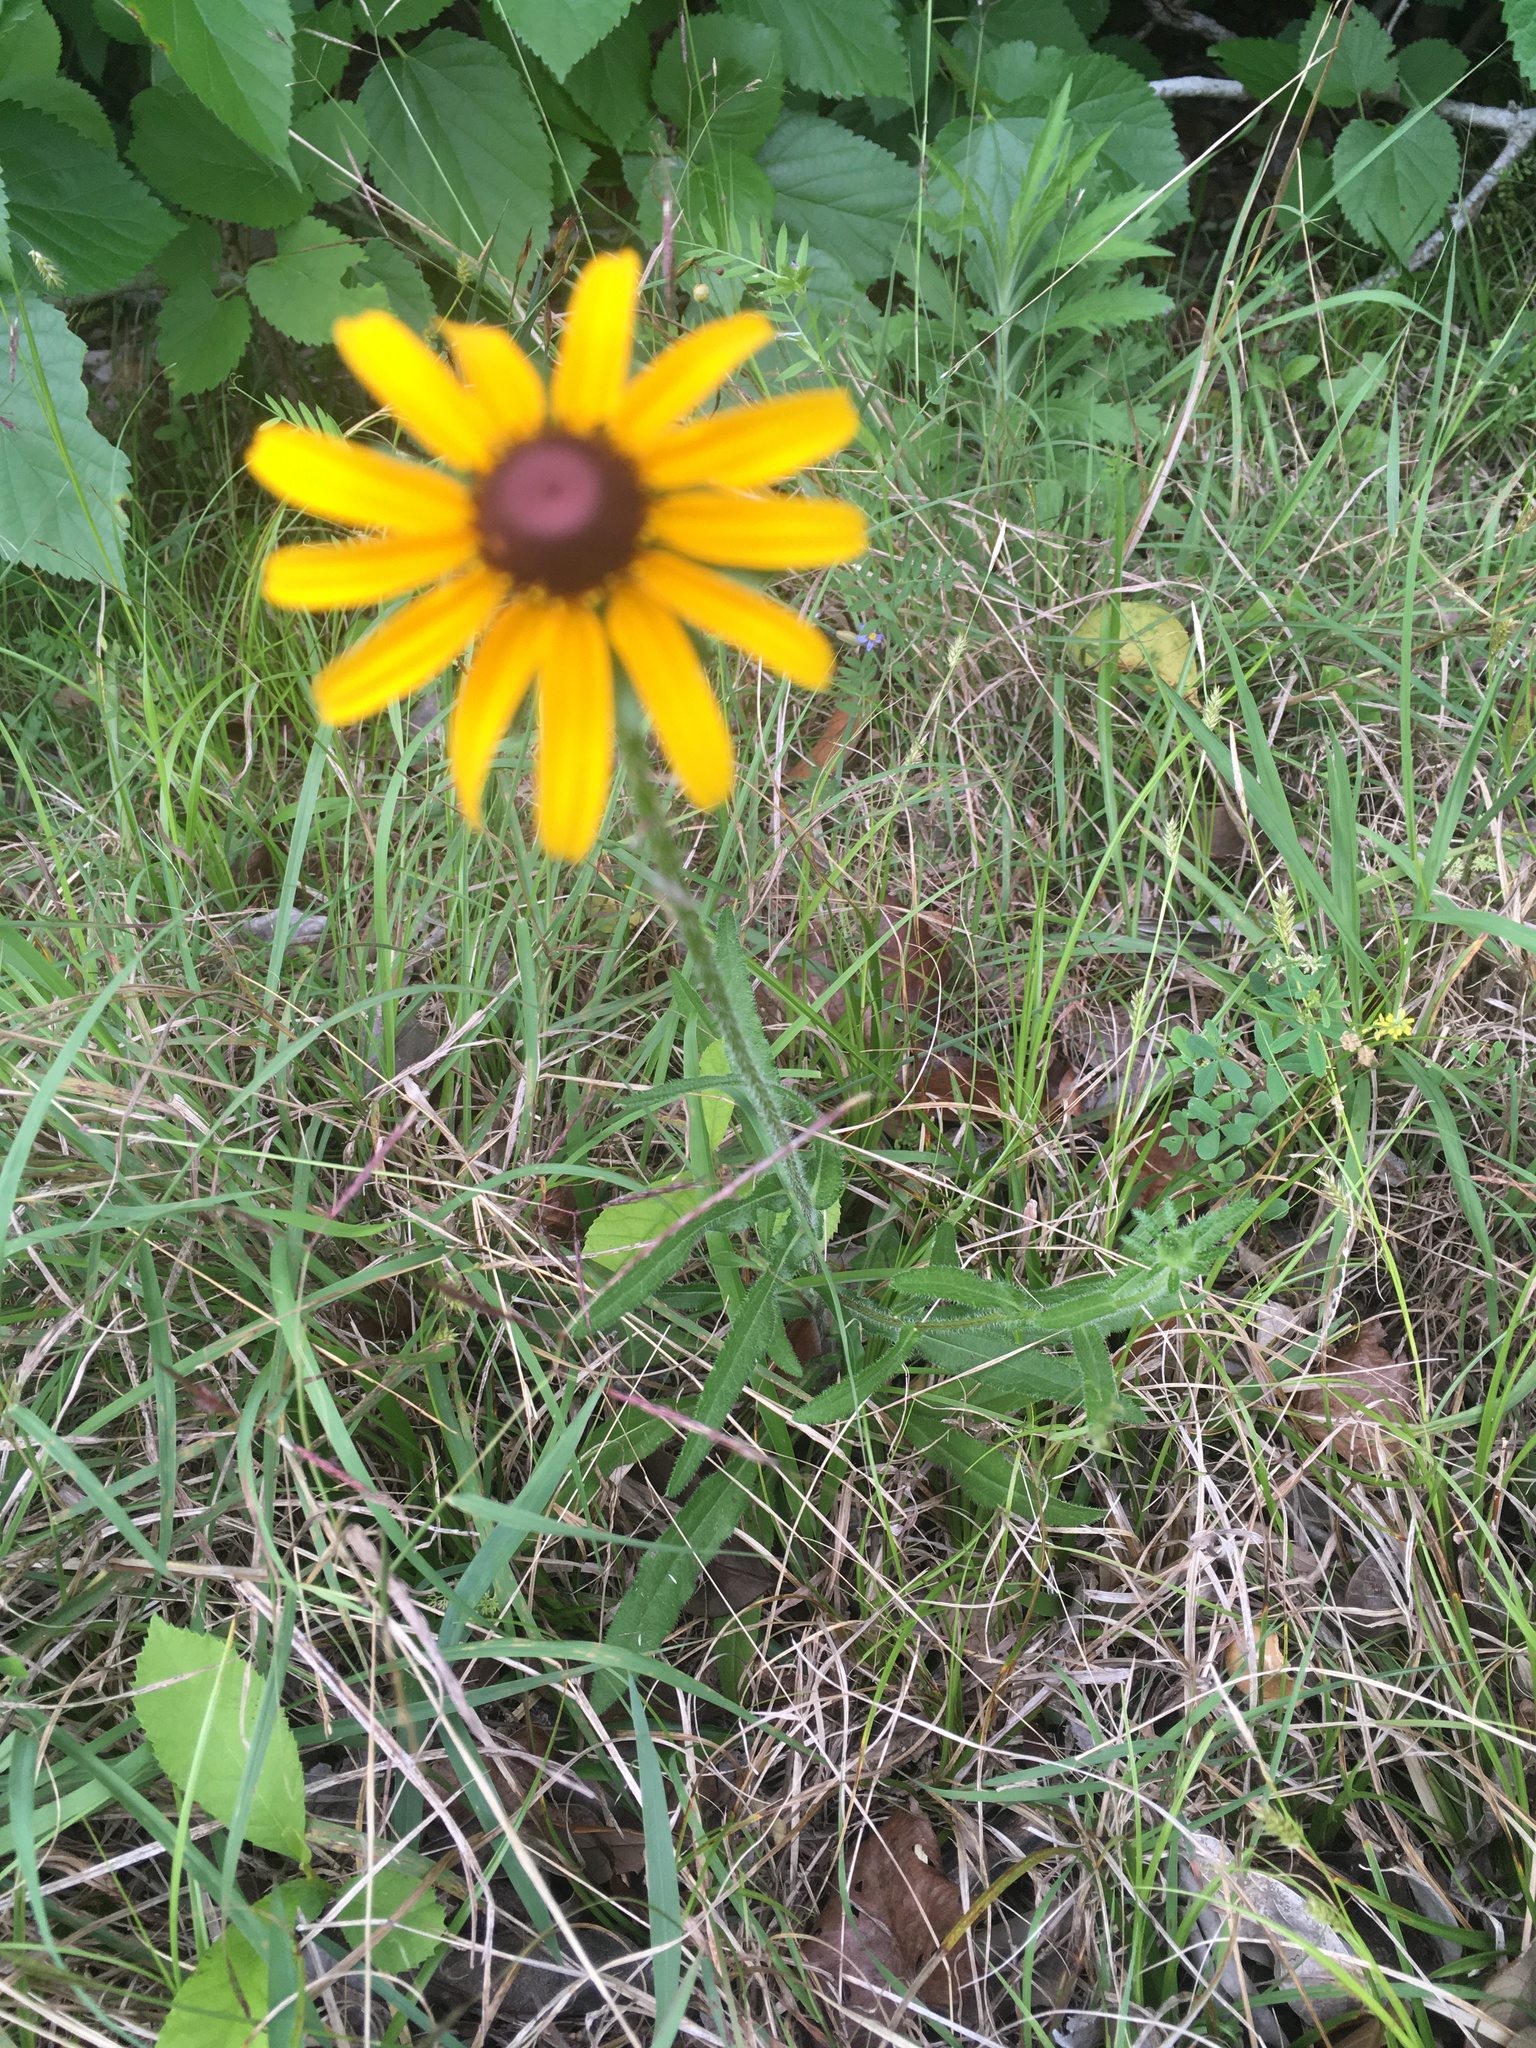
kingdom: Plantae
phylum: Tracheophyta
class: Magnoliopsida
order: Asterales
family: Asteraceae
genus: Rudbeckia
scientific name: Rudbeckia hirta
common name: Black-eyed-susan
